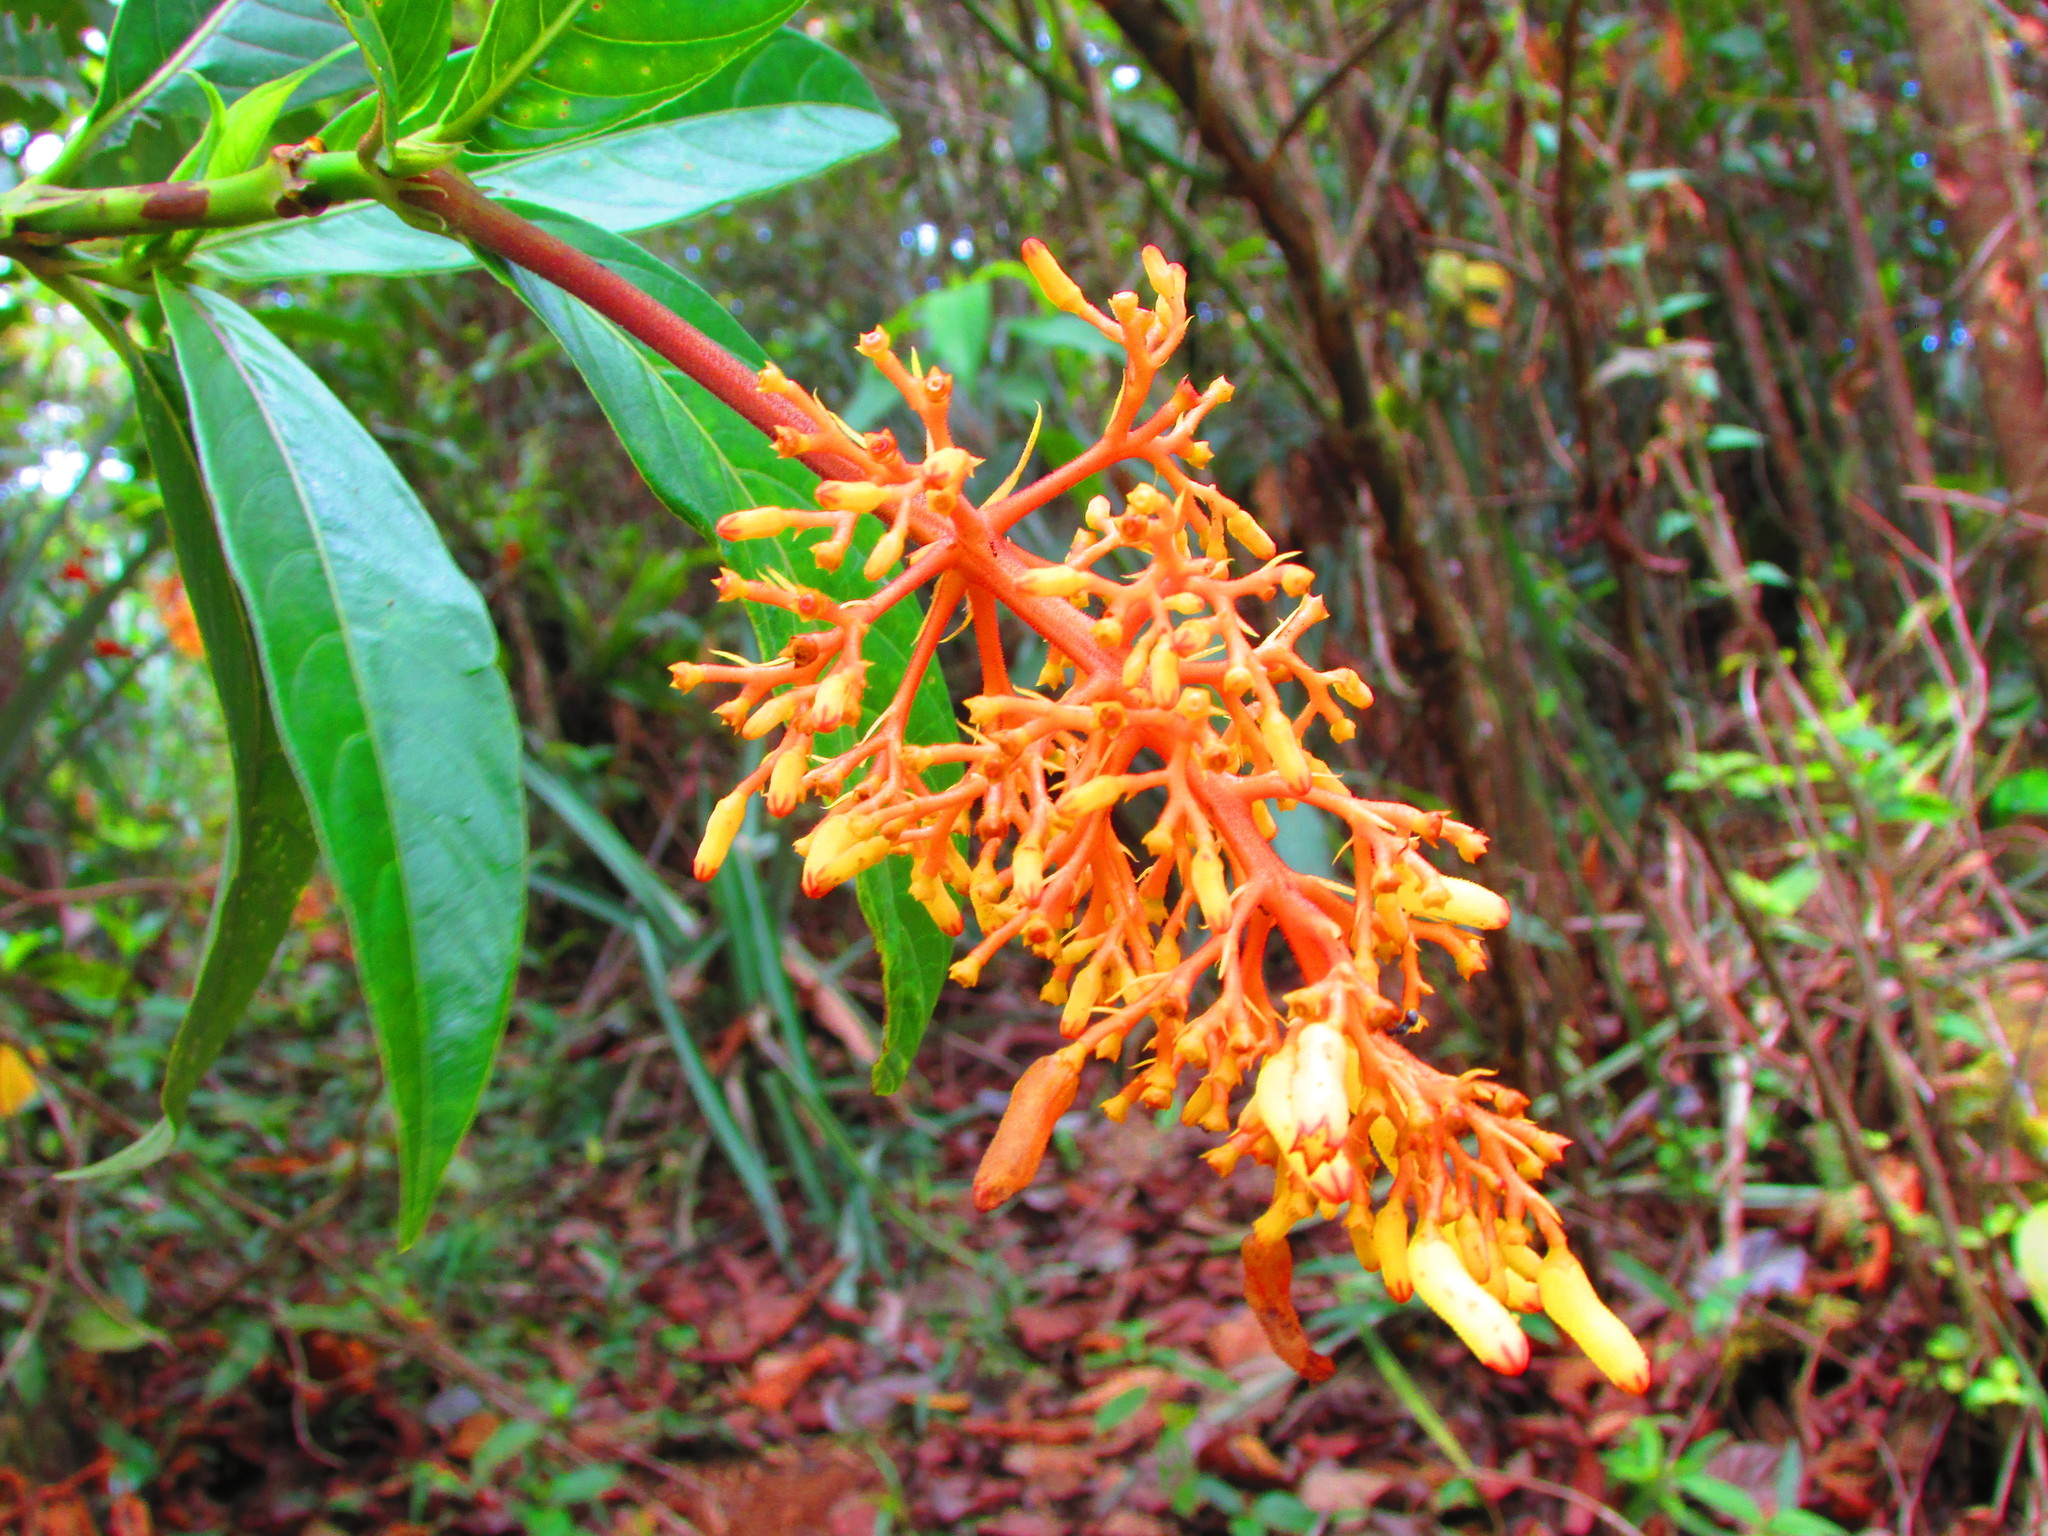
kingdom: Plantae
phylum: Tracheophyta
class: Magnoliopsida
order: Gentianales
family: Rubiaceae
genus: Palicourea
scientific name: Palicourea triphylla
